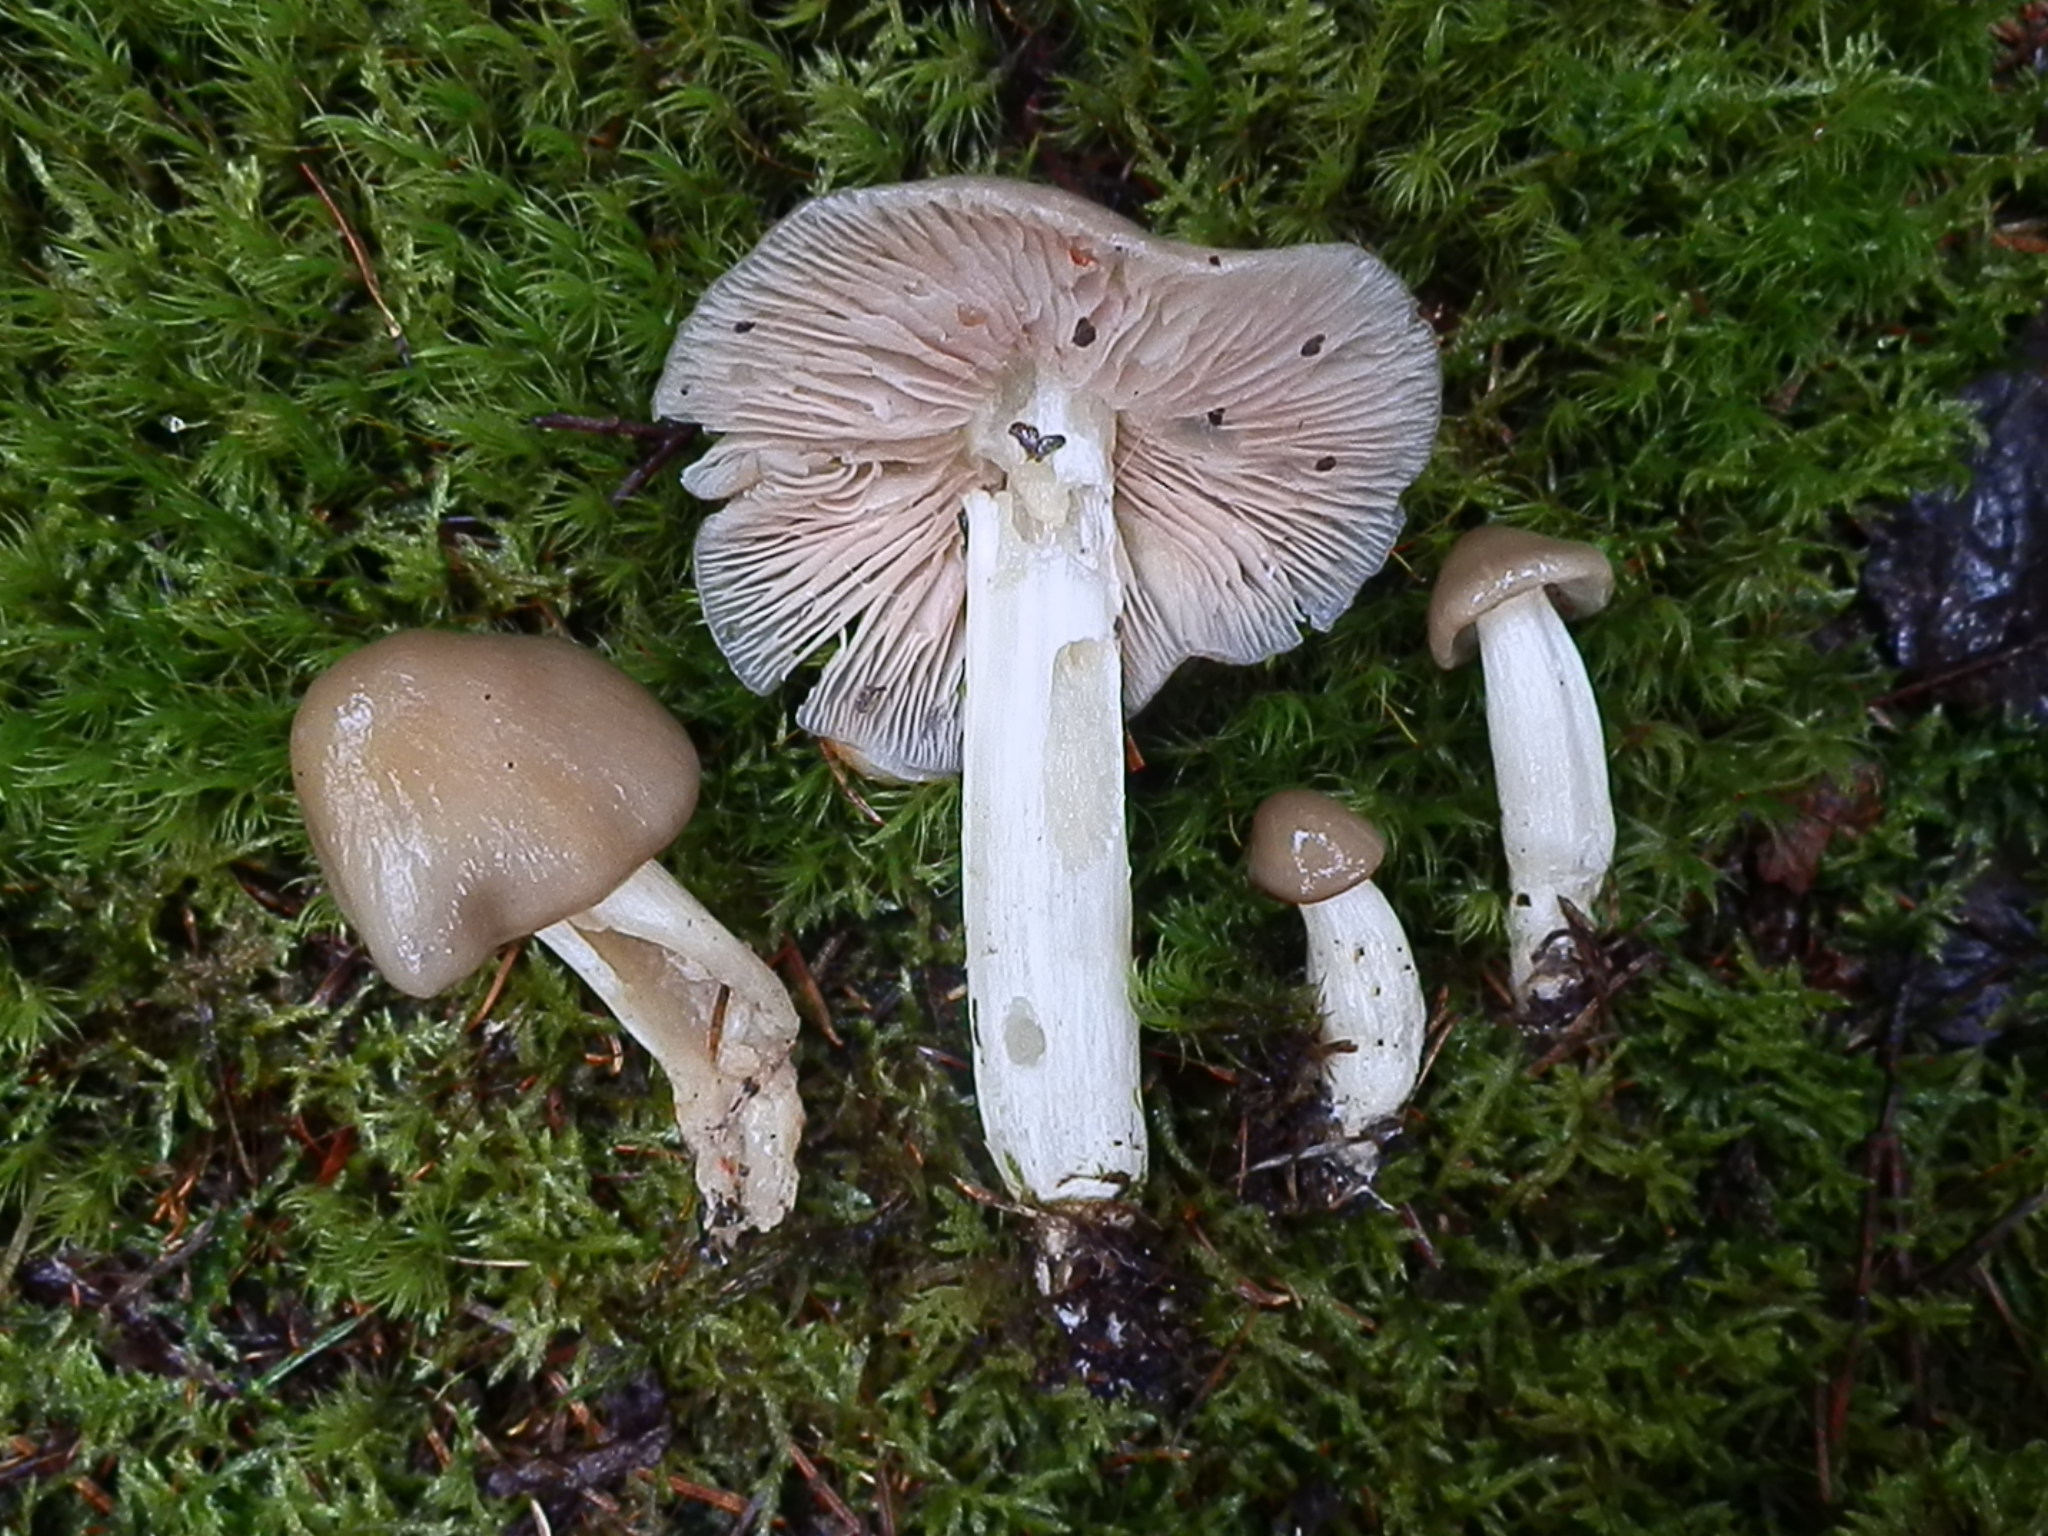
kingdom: Fungi
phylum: Basidiomycota
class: Agaricomycetes
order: Agaricales
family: Entolomataceae
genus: Entoloma
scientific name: Entoloma lividoalbum
